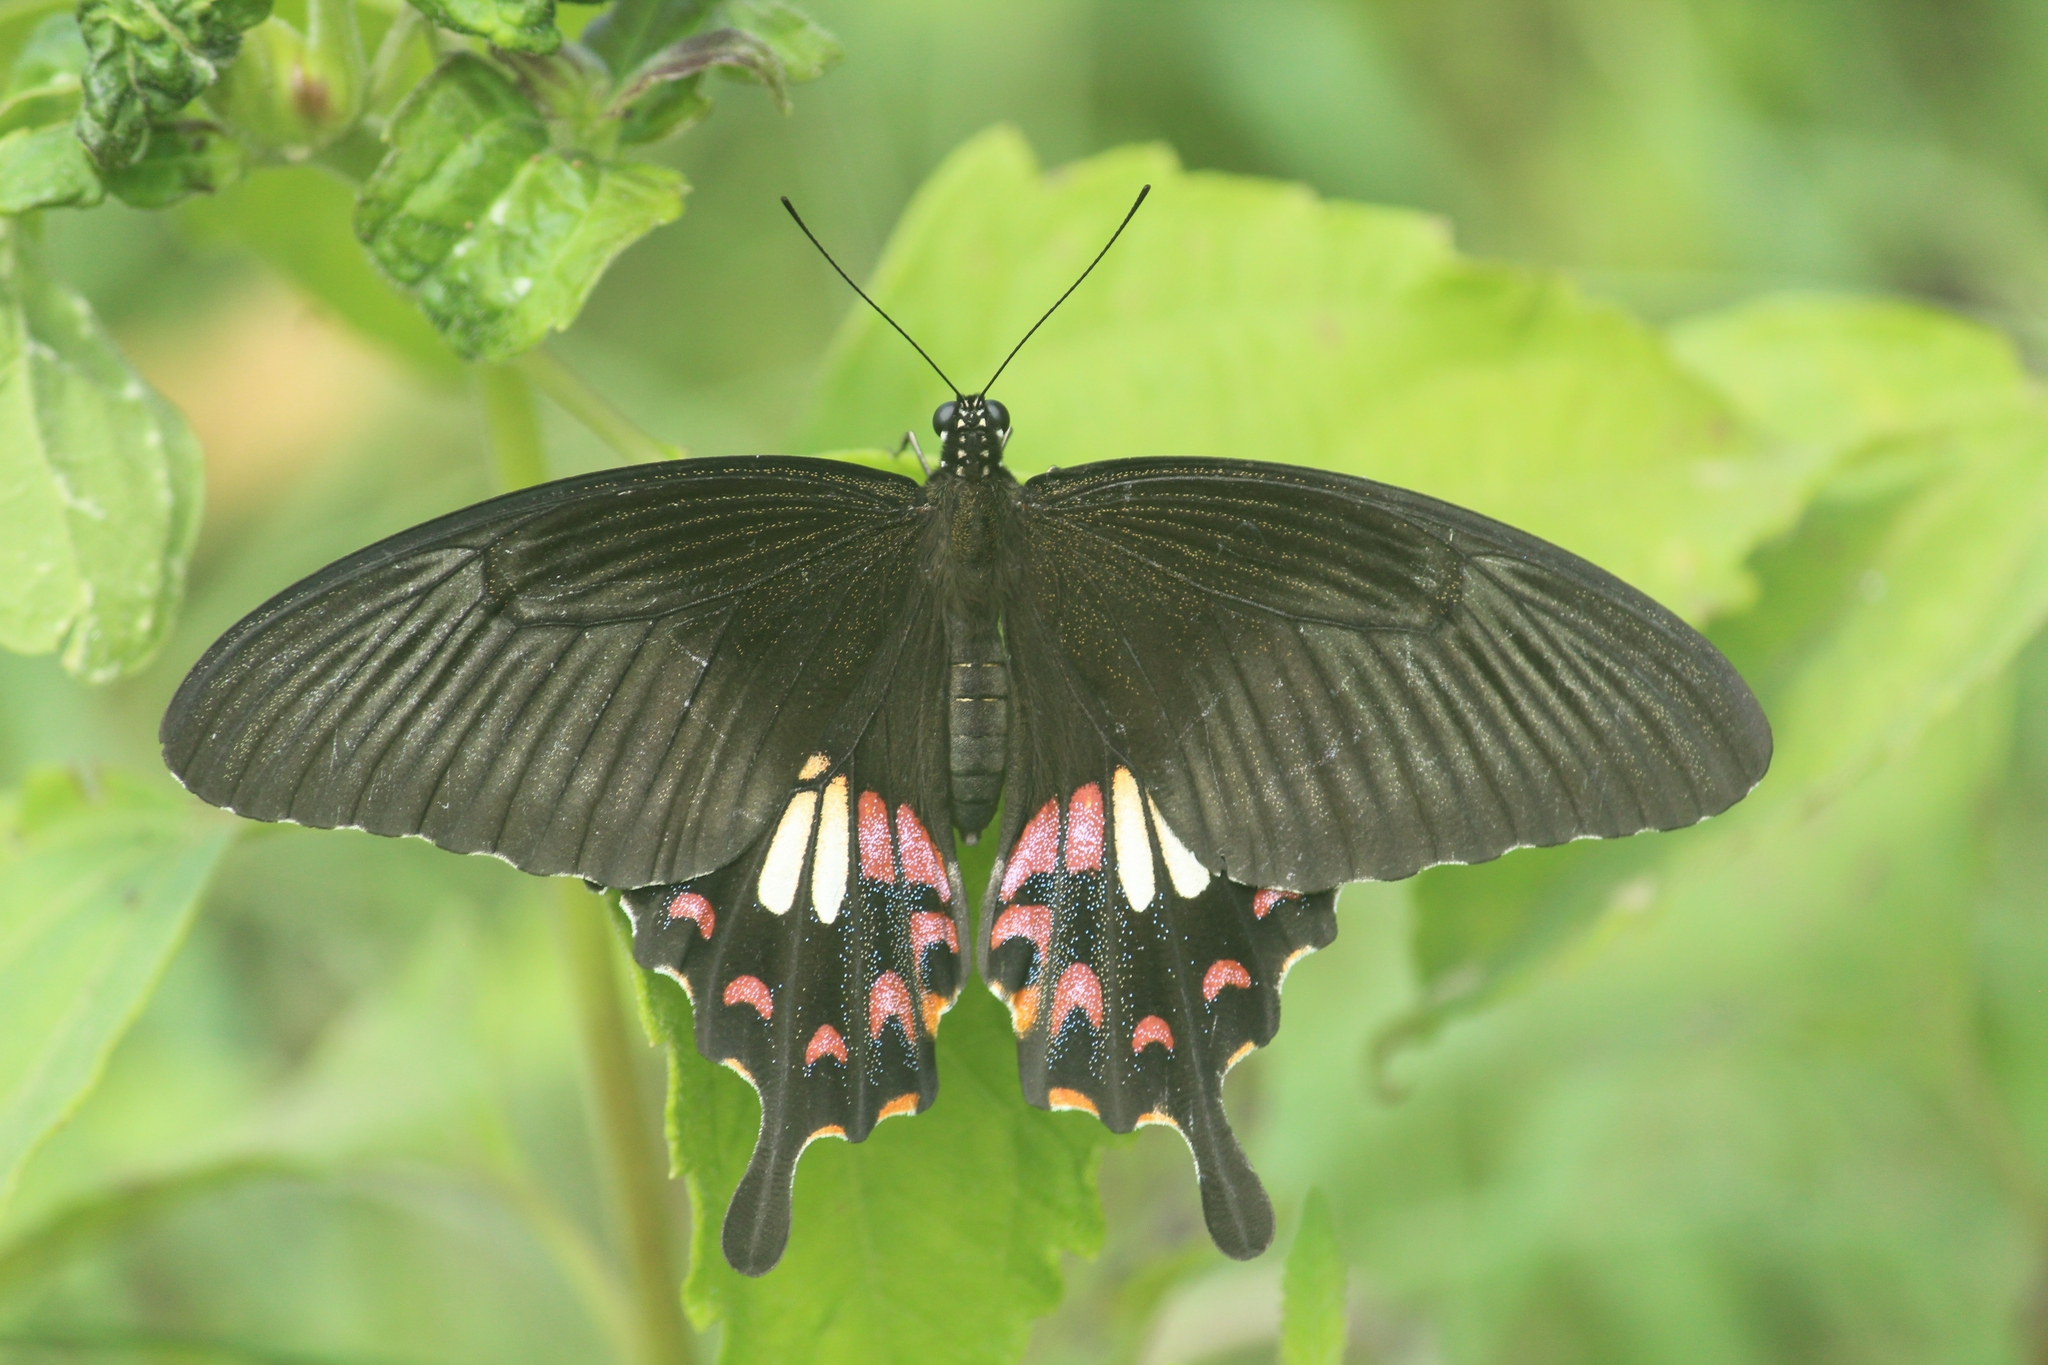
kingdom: Animalia
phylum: Arthropoda
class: Insecta
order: Lepidoptera
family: Papilionidae
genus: Papilio
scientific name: Papilio polytes
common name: Common mormon
